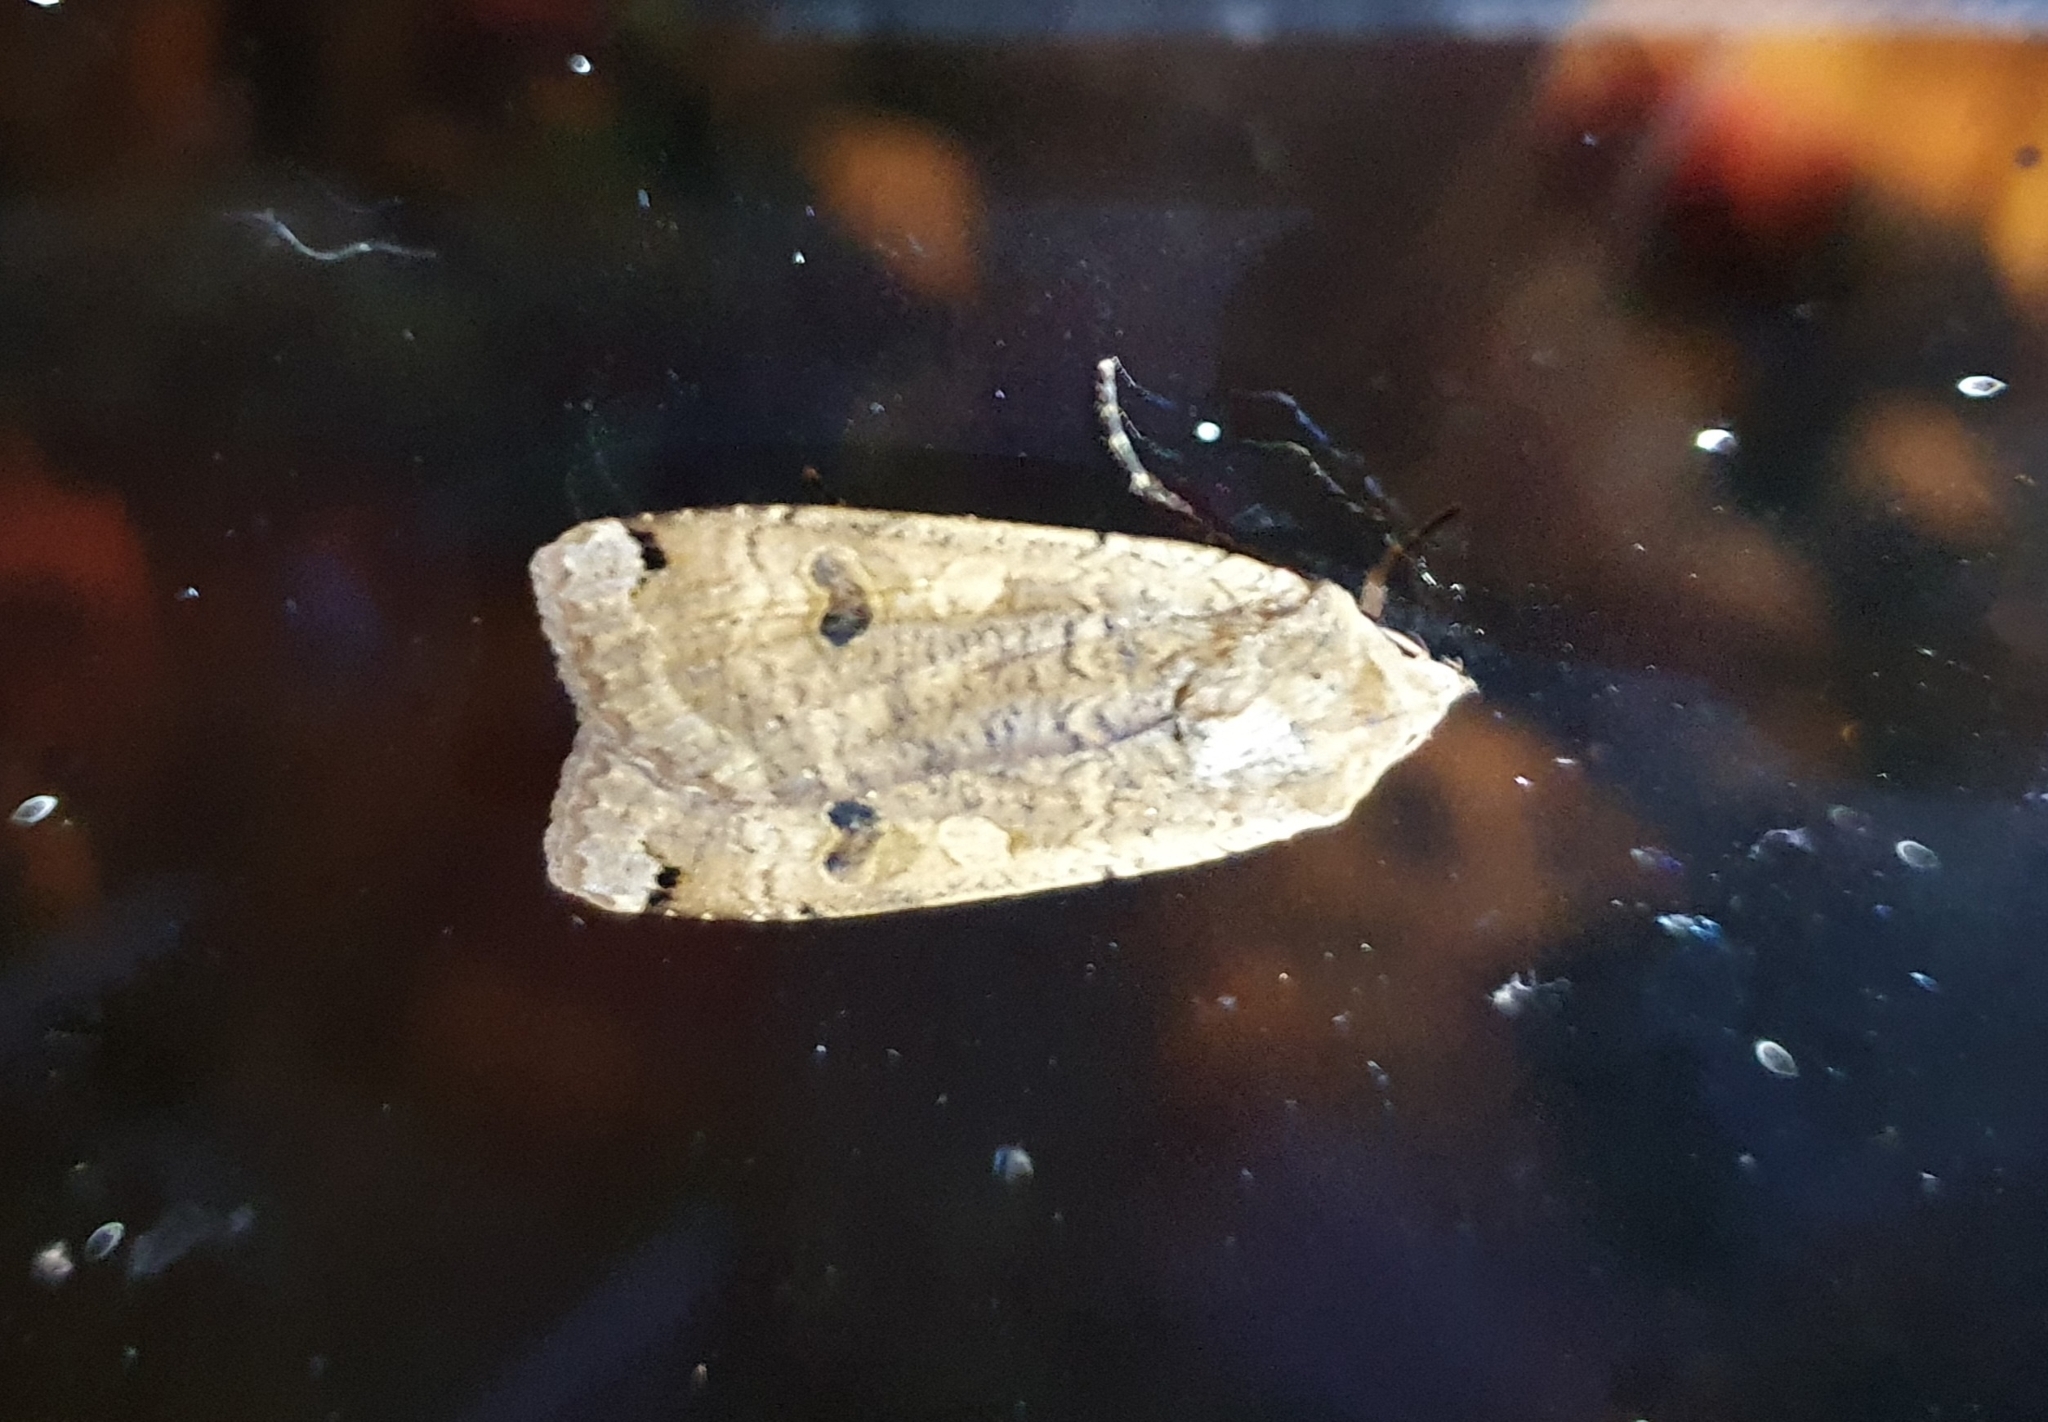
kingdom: Animalia
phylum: Arthropoda
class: Insecta
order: Lepidoptera
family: Noctuidae
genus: Noctua
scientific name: Noctua pronuba
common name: Large yellow underwing
